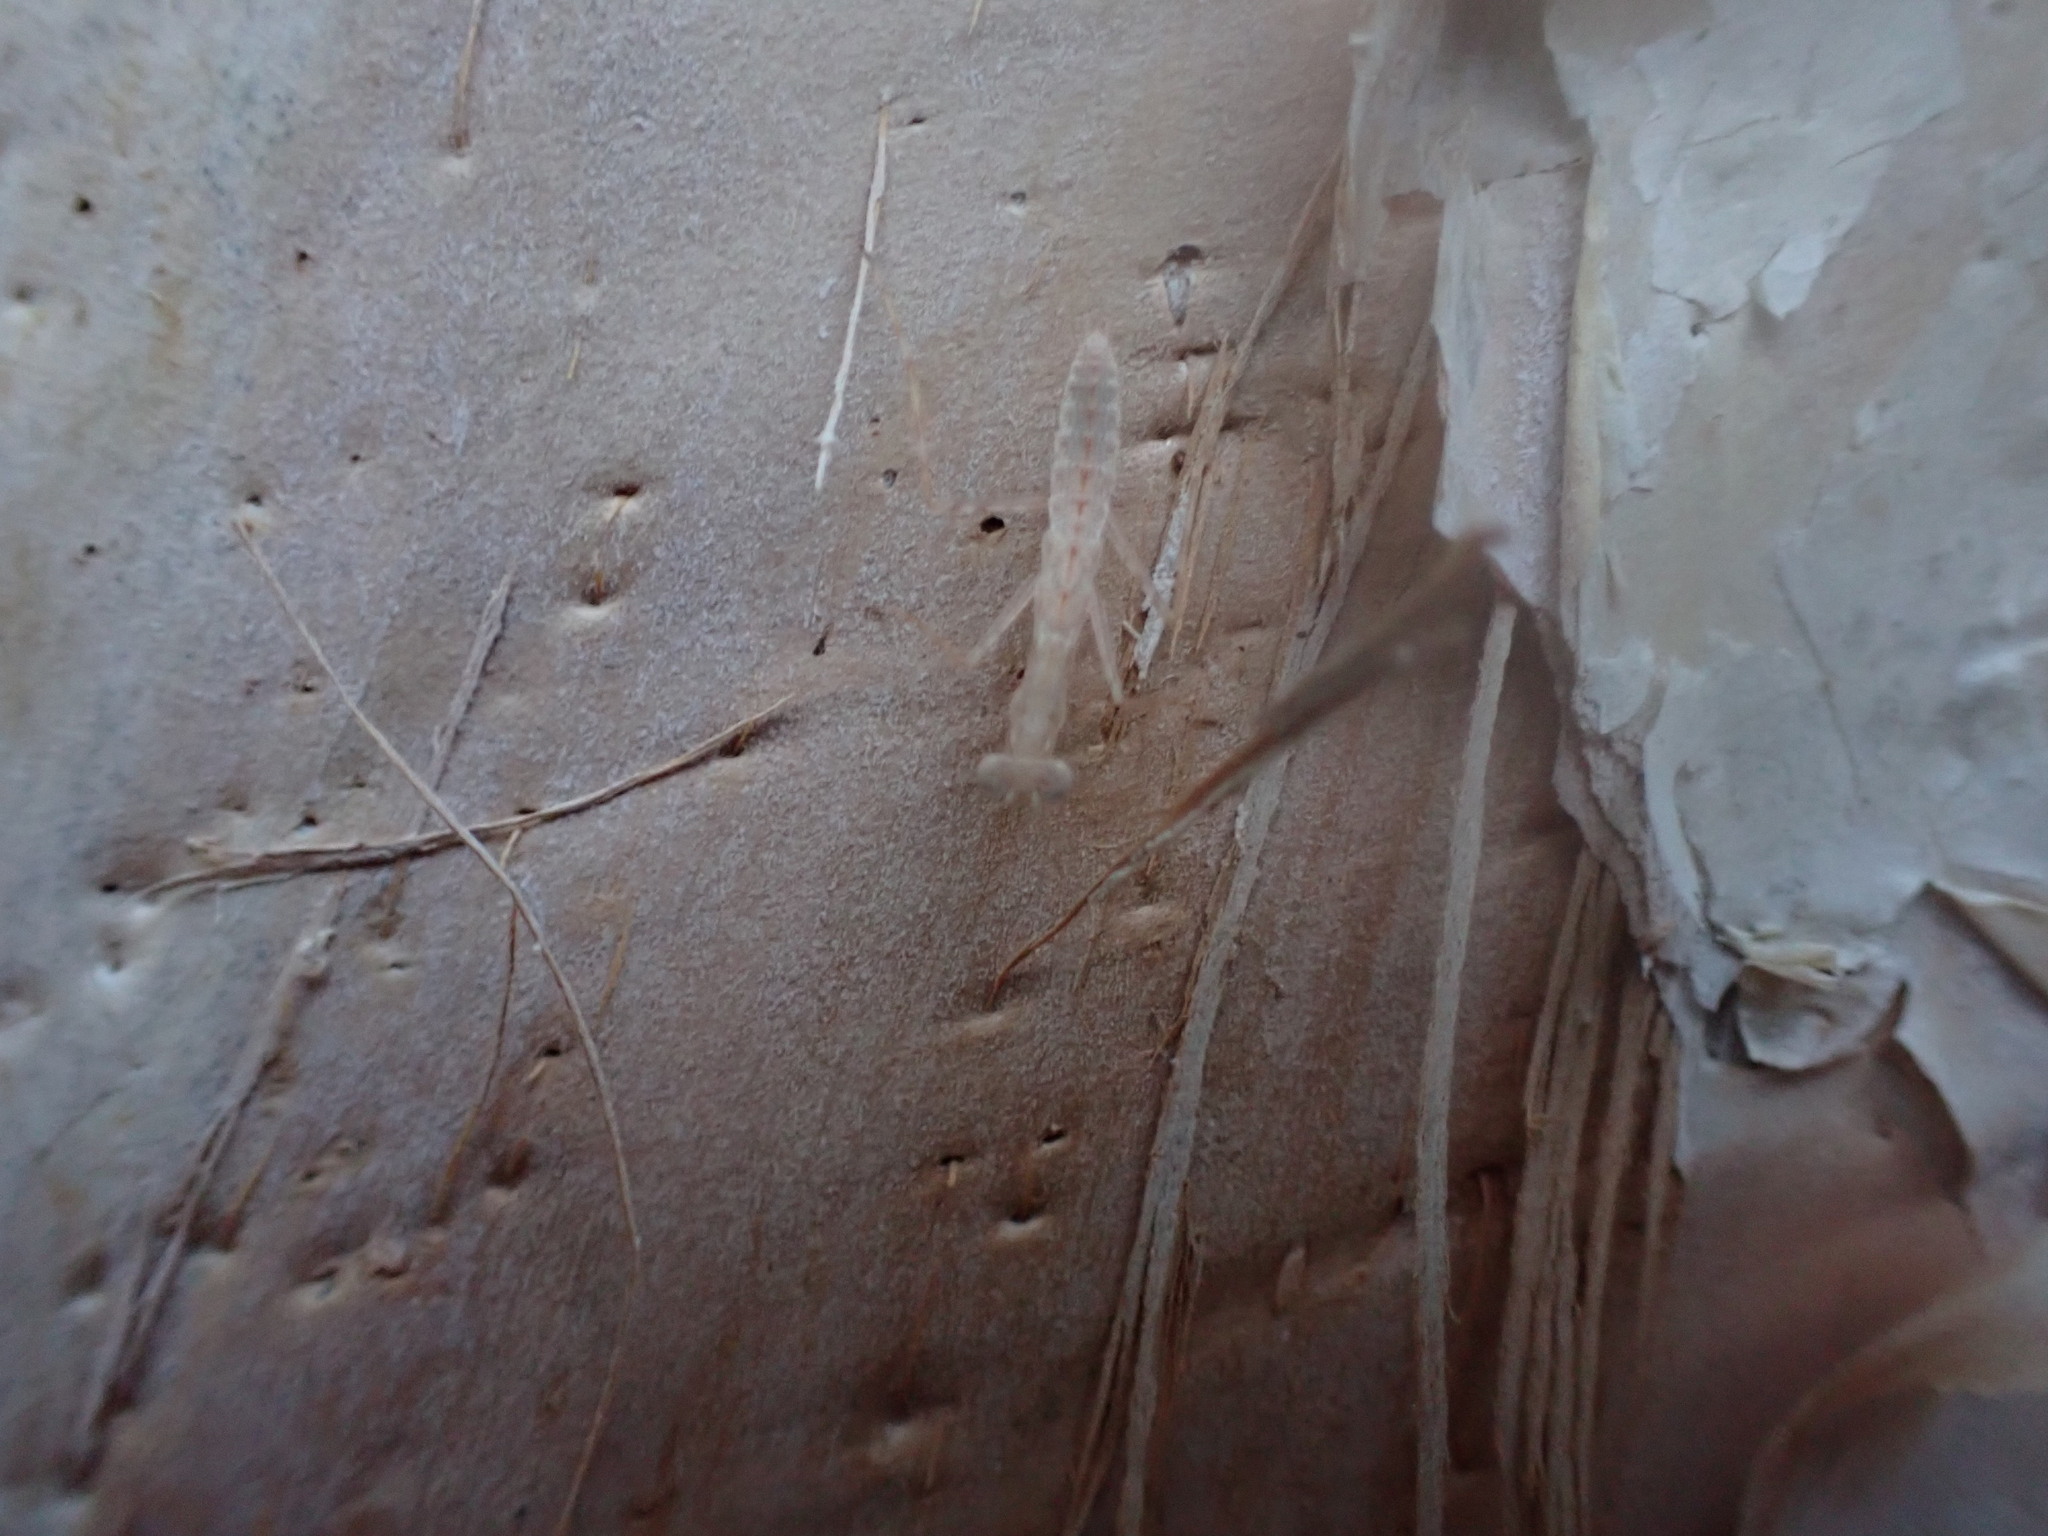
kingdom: Animalia
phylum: Arthropoda
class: Insecta
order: Mantodea
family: Nanomantidae
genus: Ima
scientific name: Ima fusca
